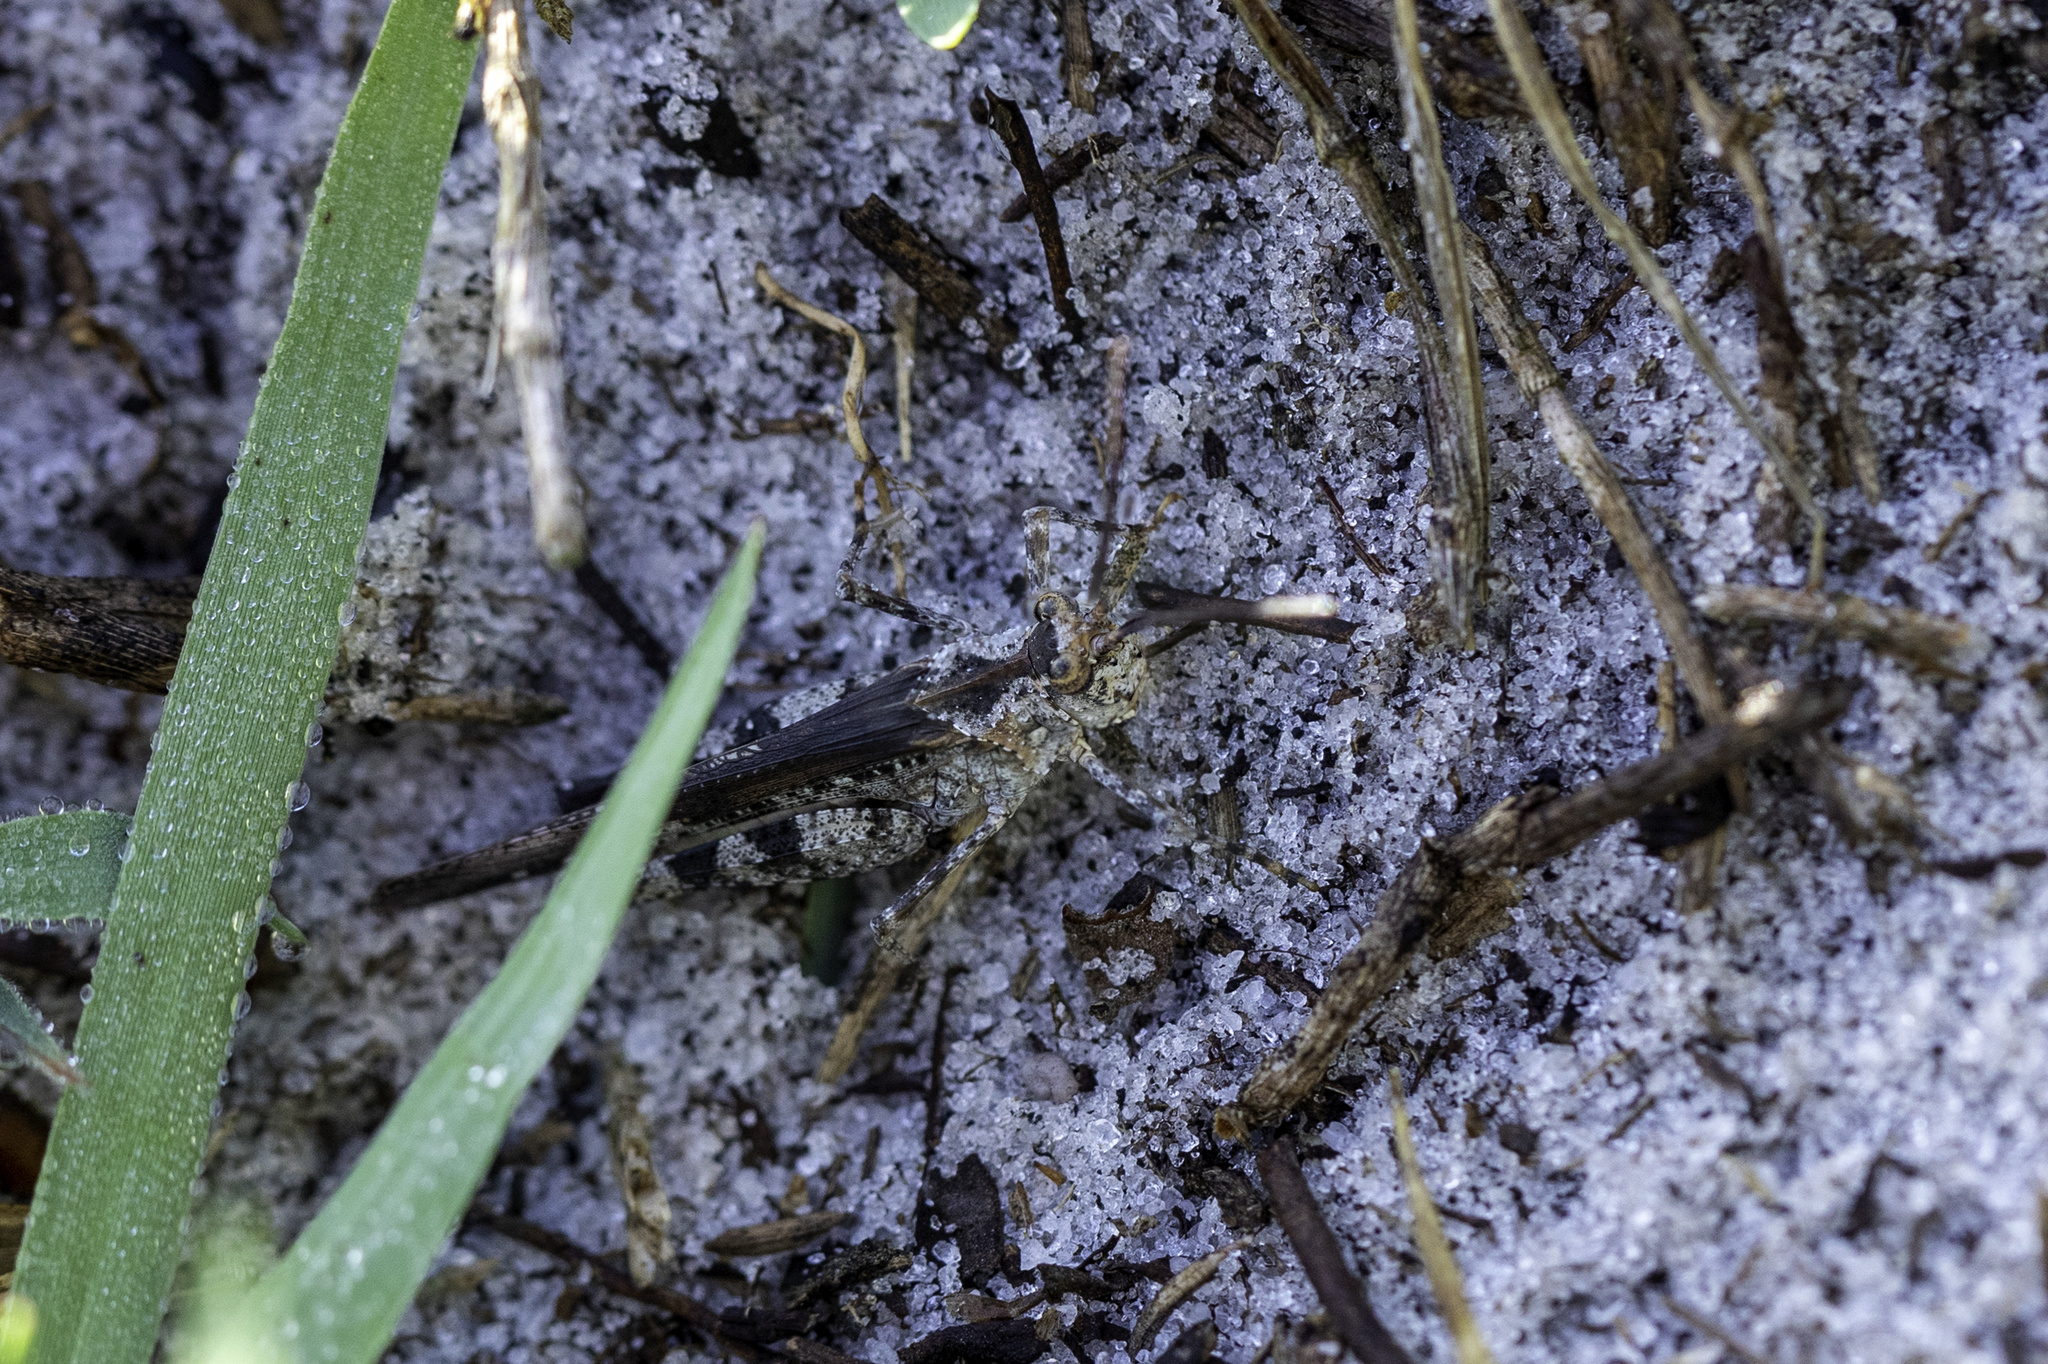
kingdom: Animalia
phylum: Arthropoda
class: Insecta
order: Orthoptera
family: Acrididae
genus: Psinidia
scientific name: Psinidia fenestralis
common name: Long-horned locust
